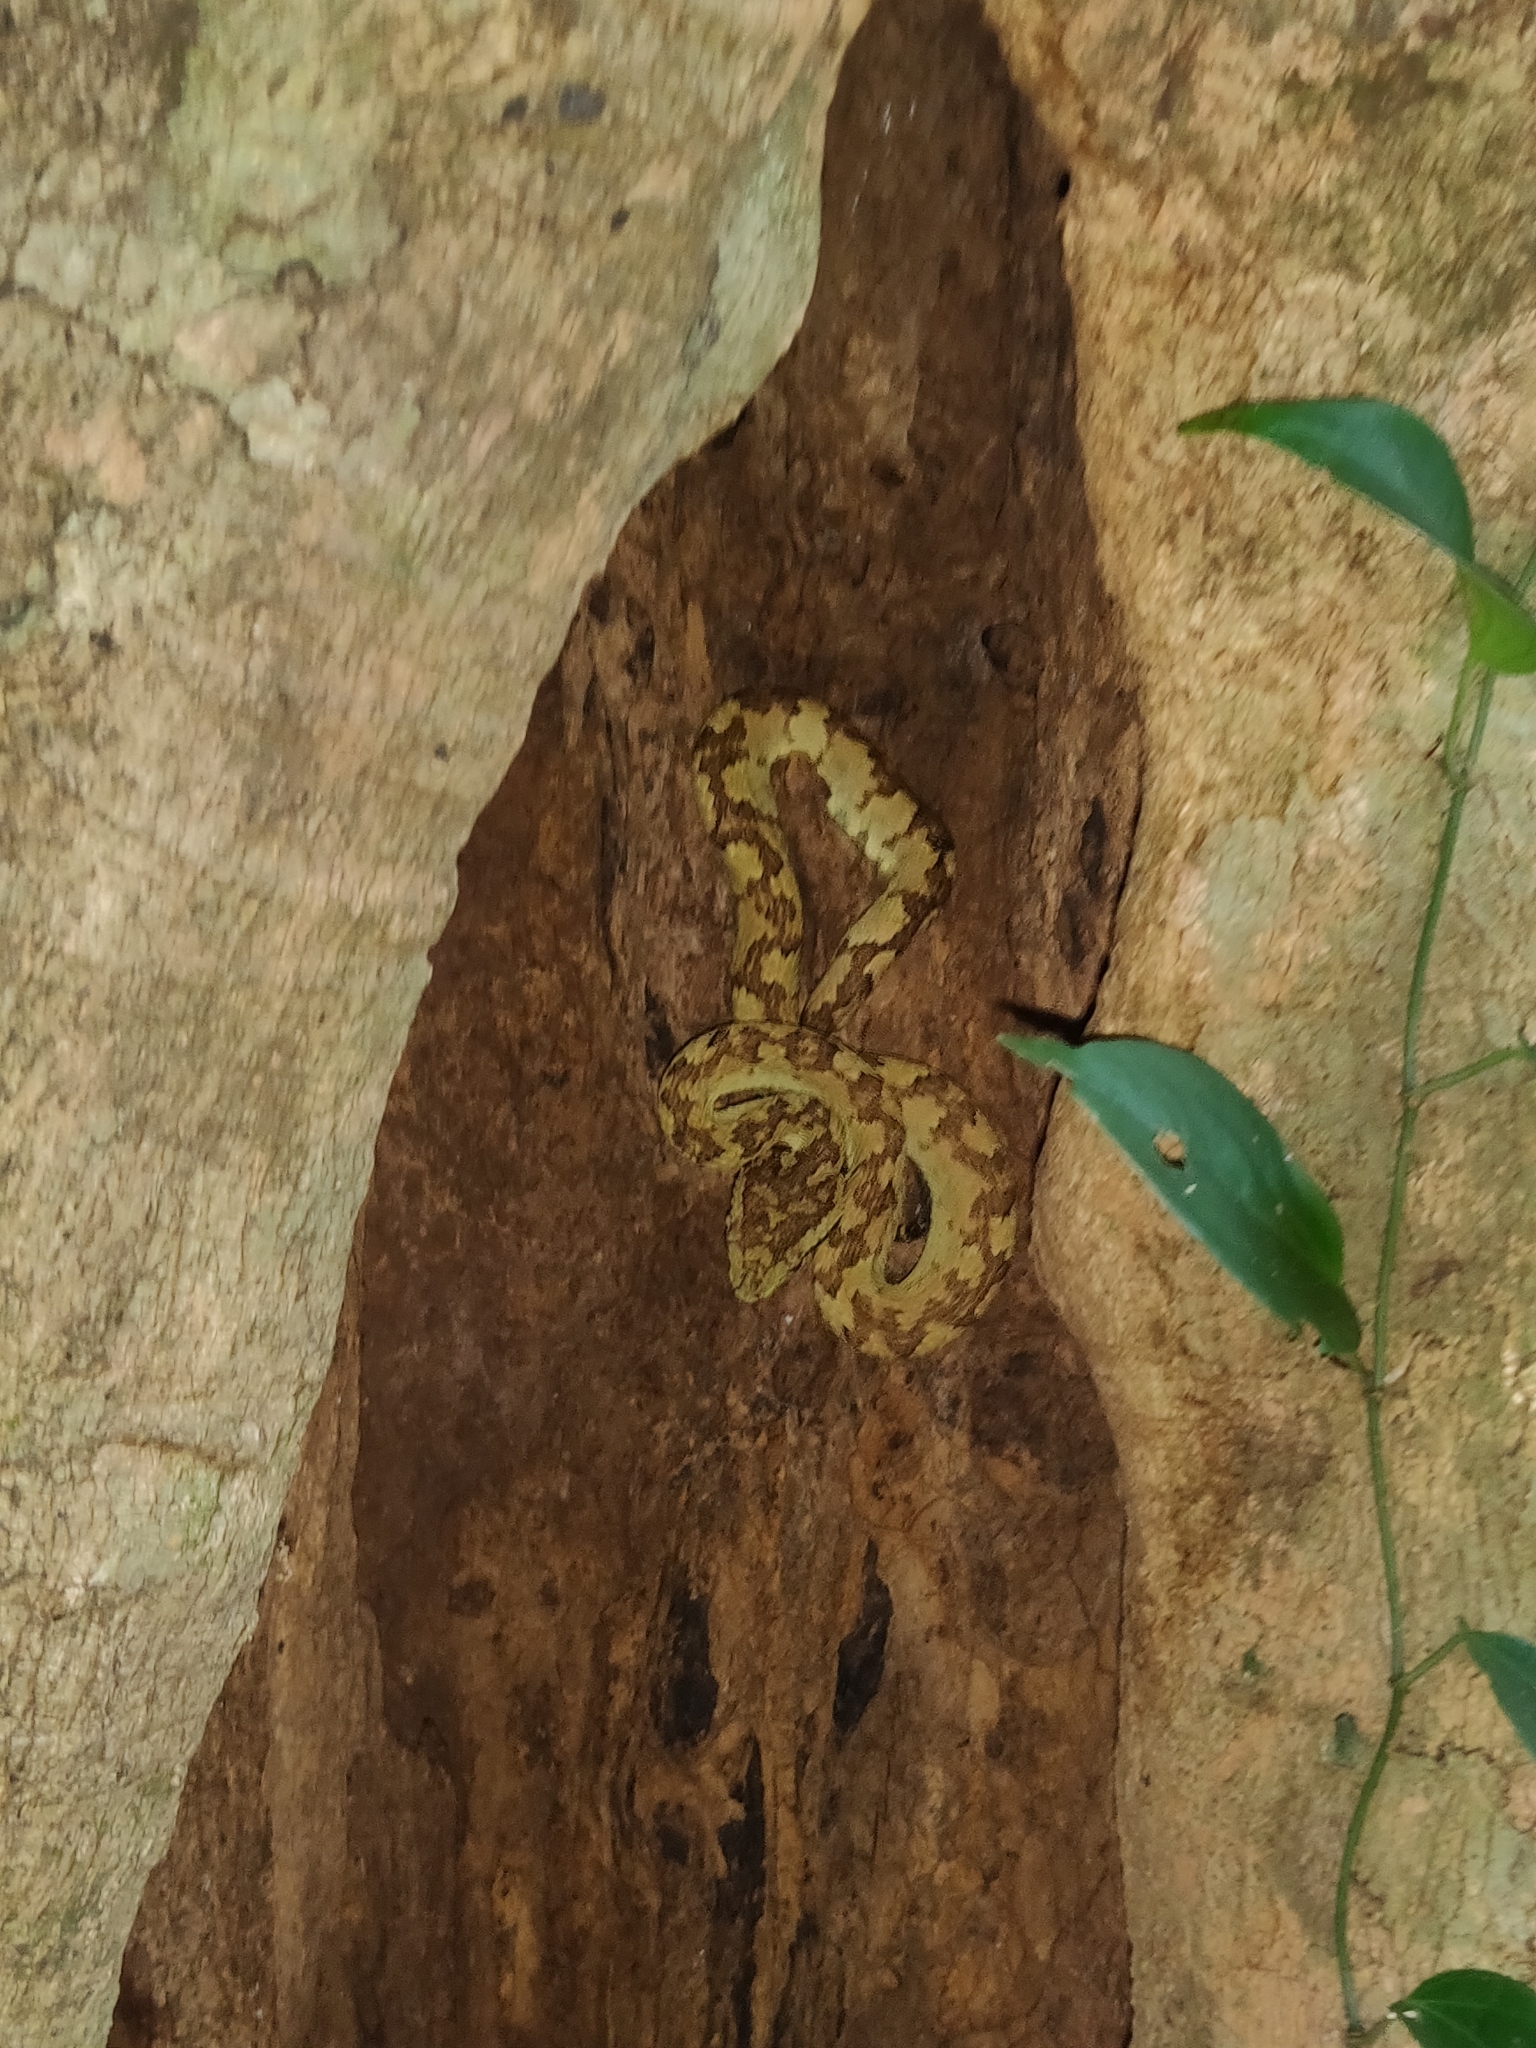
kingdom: Animalia
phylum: Chordata
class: Squamata
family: Viperidae
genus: Craspedocephalus
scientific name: Craspedocephalus malabaricus
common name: Malabarian pit viper
